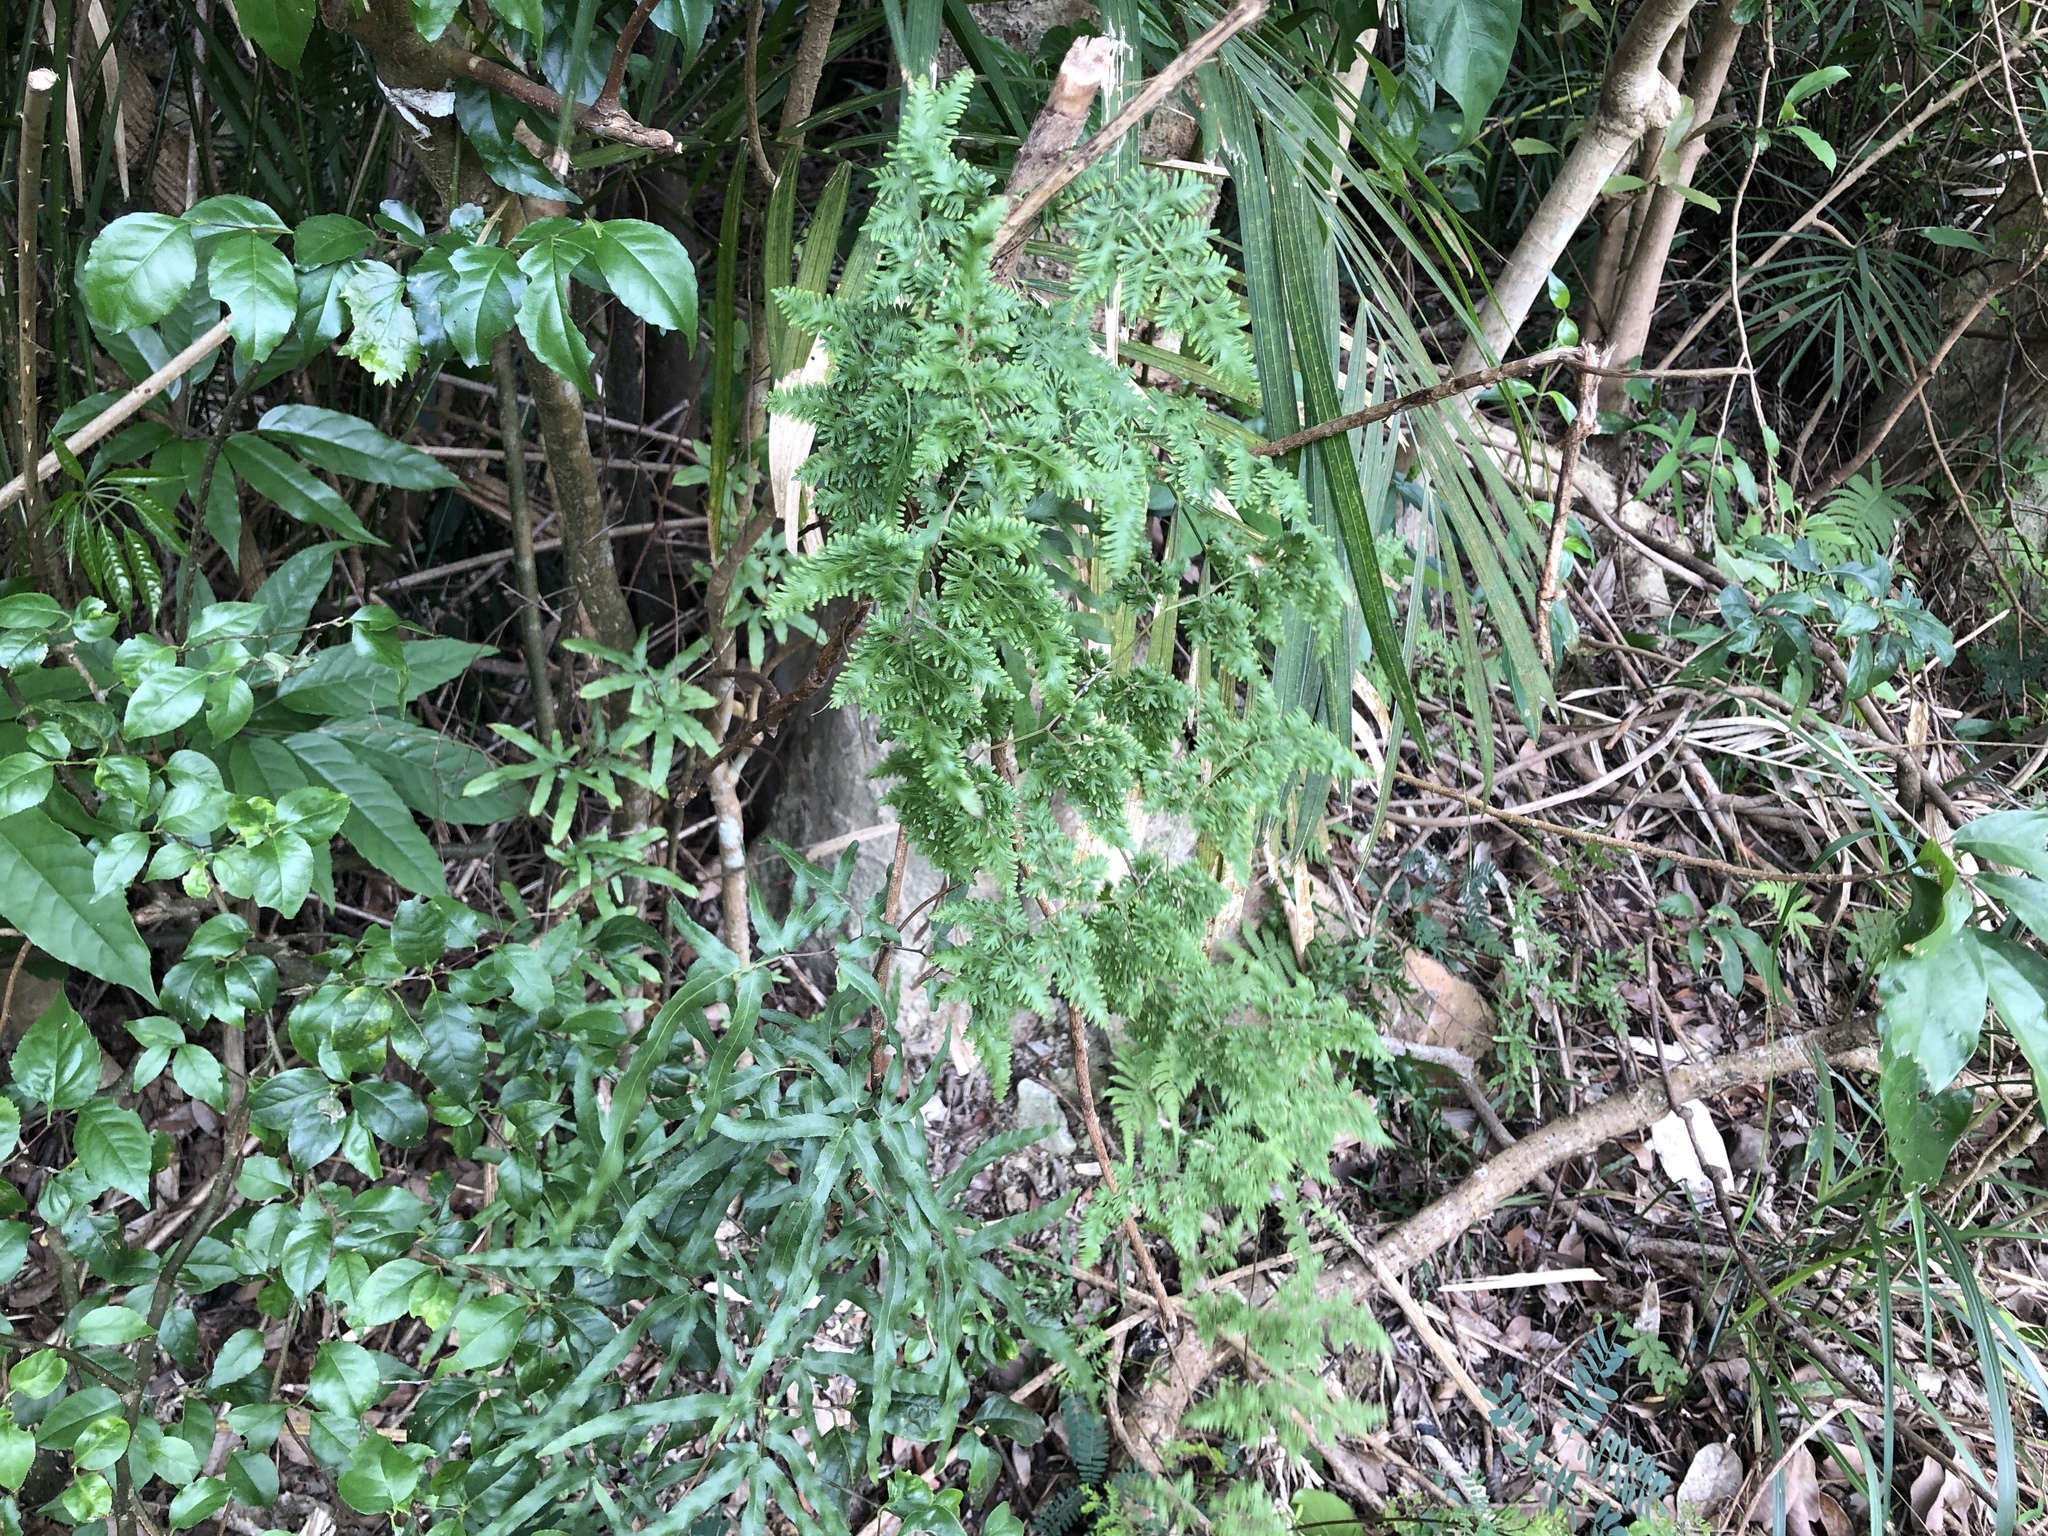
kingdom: Plantae
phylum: Tracheophyta
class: Polypodiopsida
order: Schizaeales
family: Lygodiaceae
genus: Lygodium
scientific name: Lygodium japonicum
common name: Japanese climbing fern
